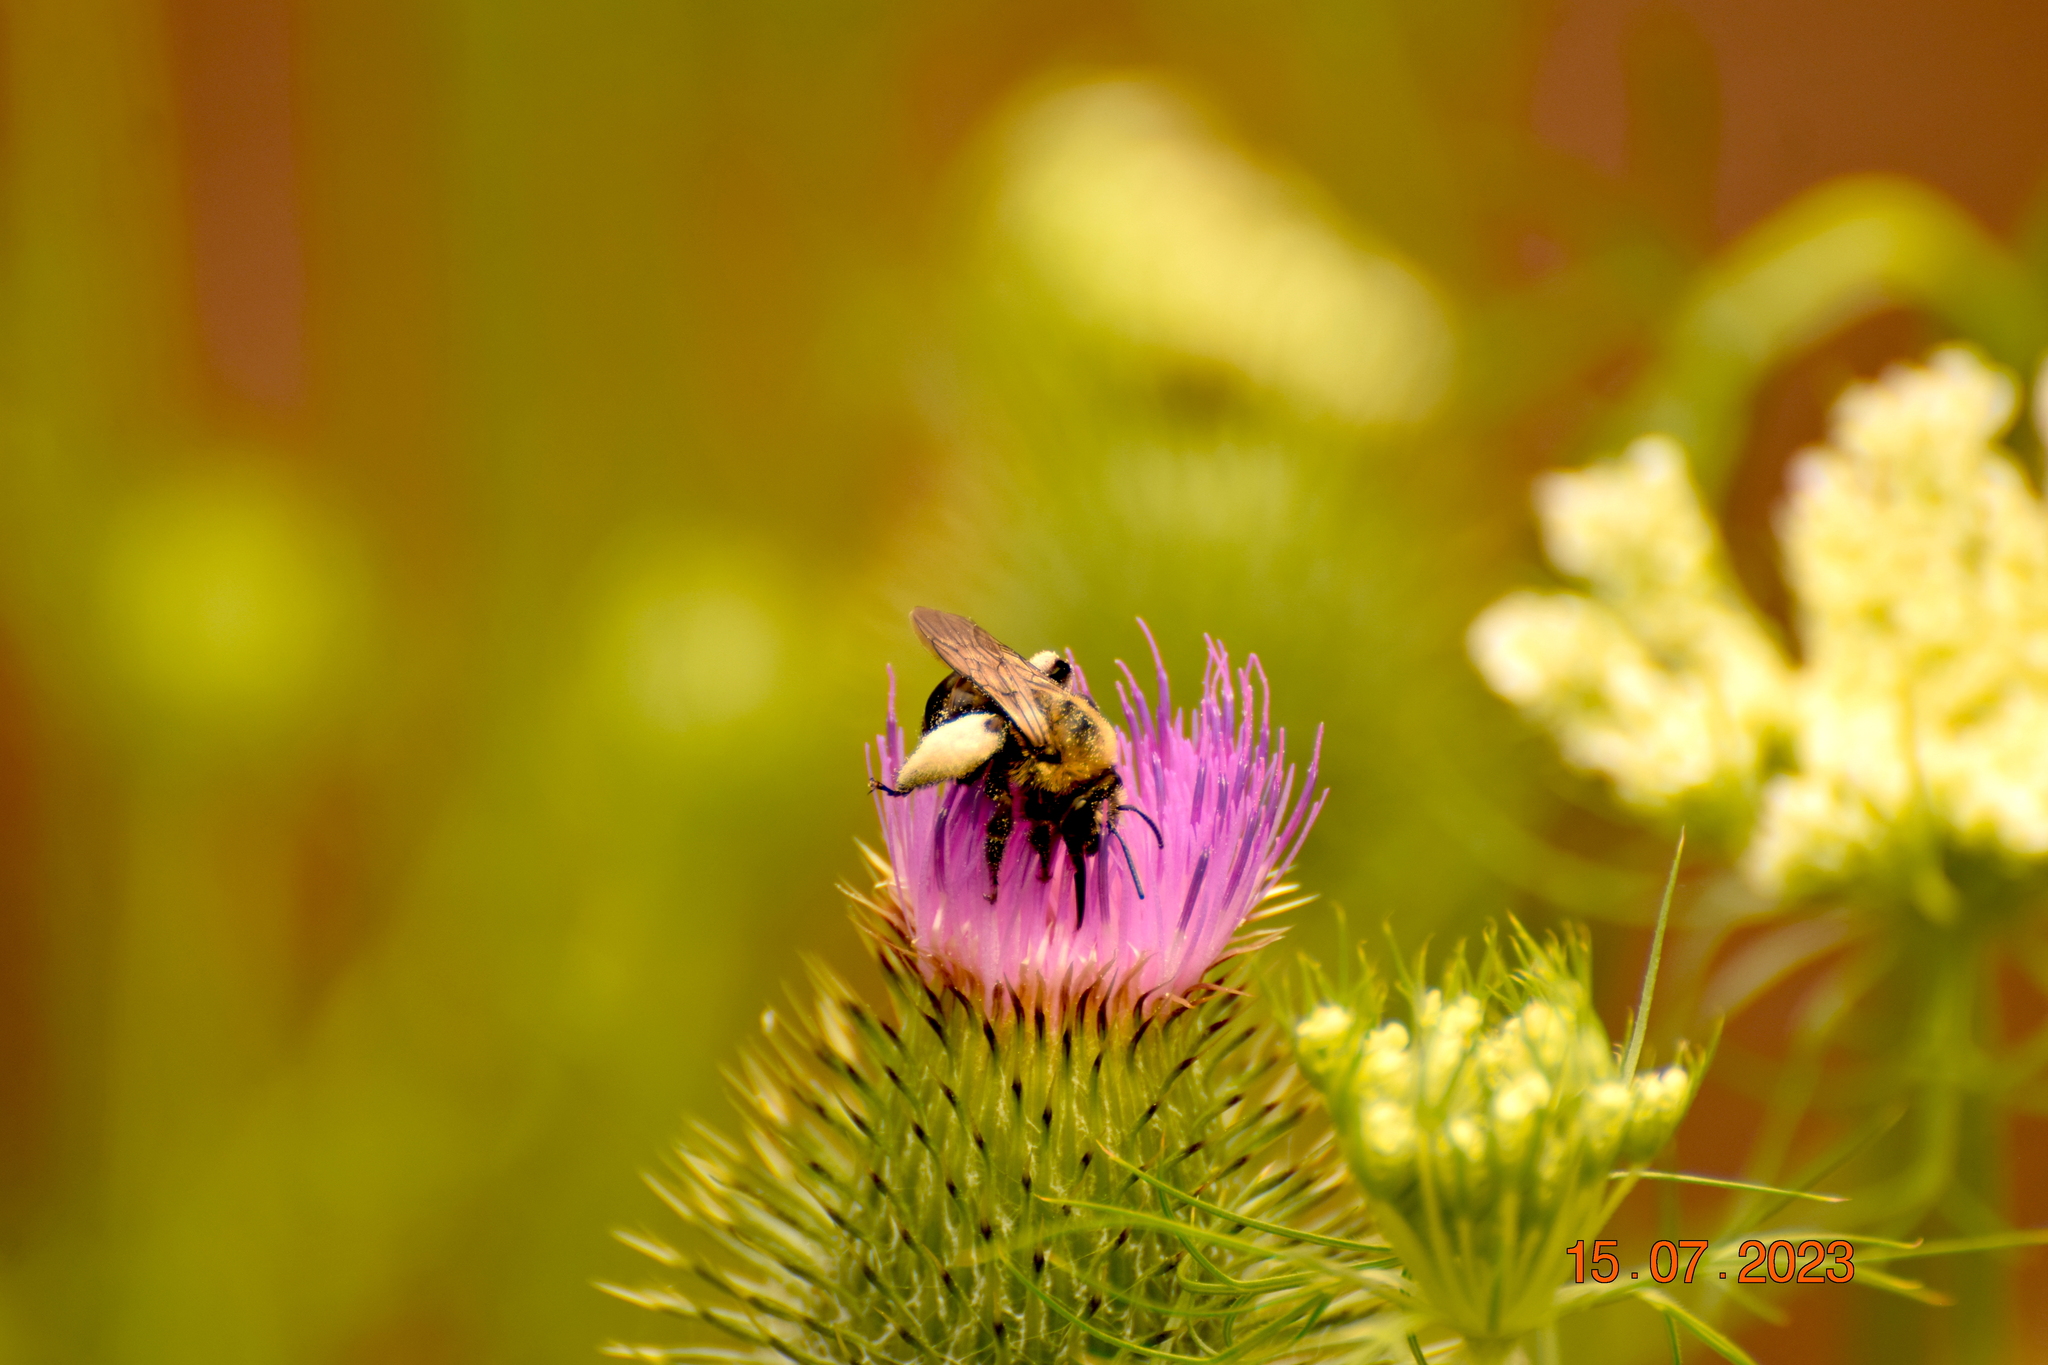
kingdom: Animalia
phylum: Arthropoda
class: Insecta
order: Hymenoptera
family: Apidae
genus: Melissodes
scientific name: Melissodes desponsus
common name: Thistle long-horned bee
